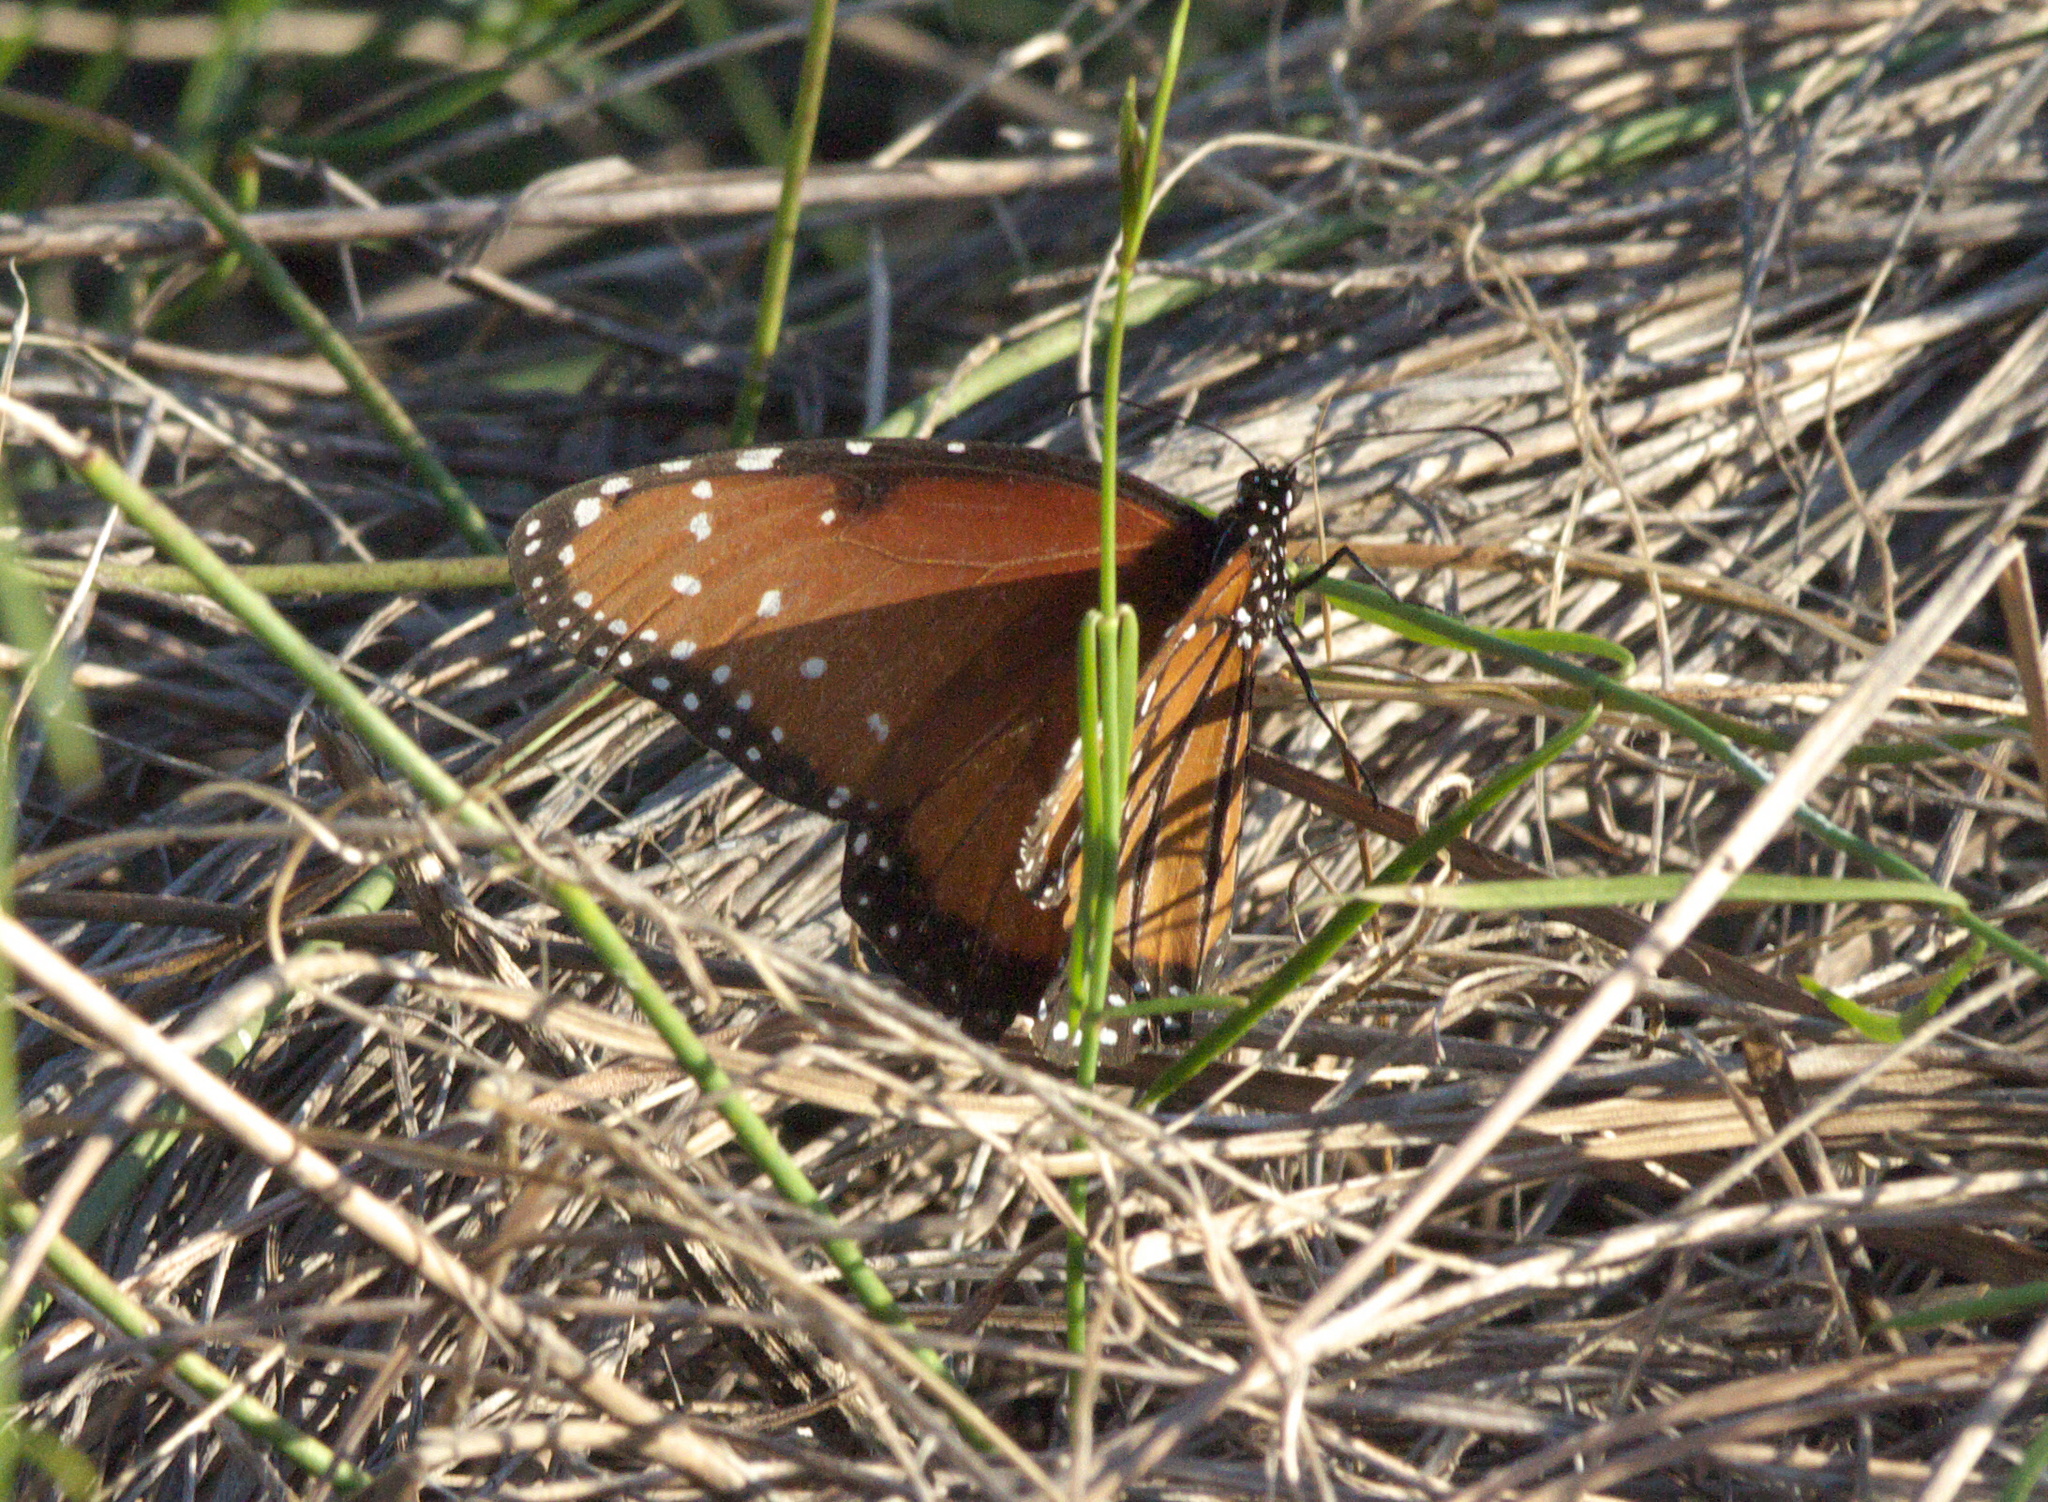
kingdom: Animalia
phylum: Arthropoda
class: Insecta
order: Lepidoptera
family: Nymphalidae
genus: Danaus
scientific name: Danaus gilippus
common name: Queen
